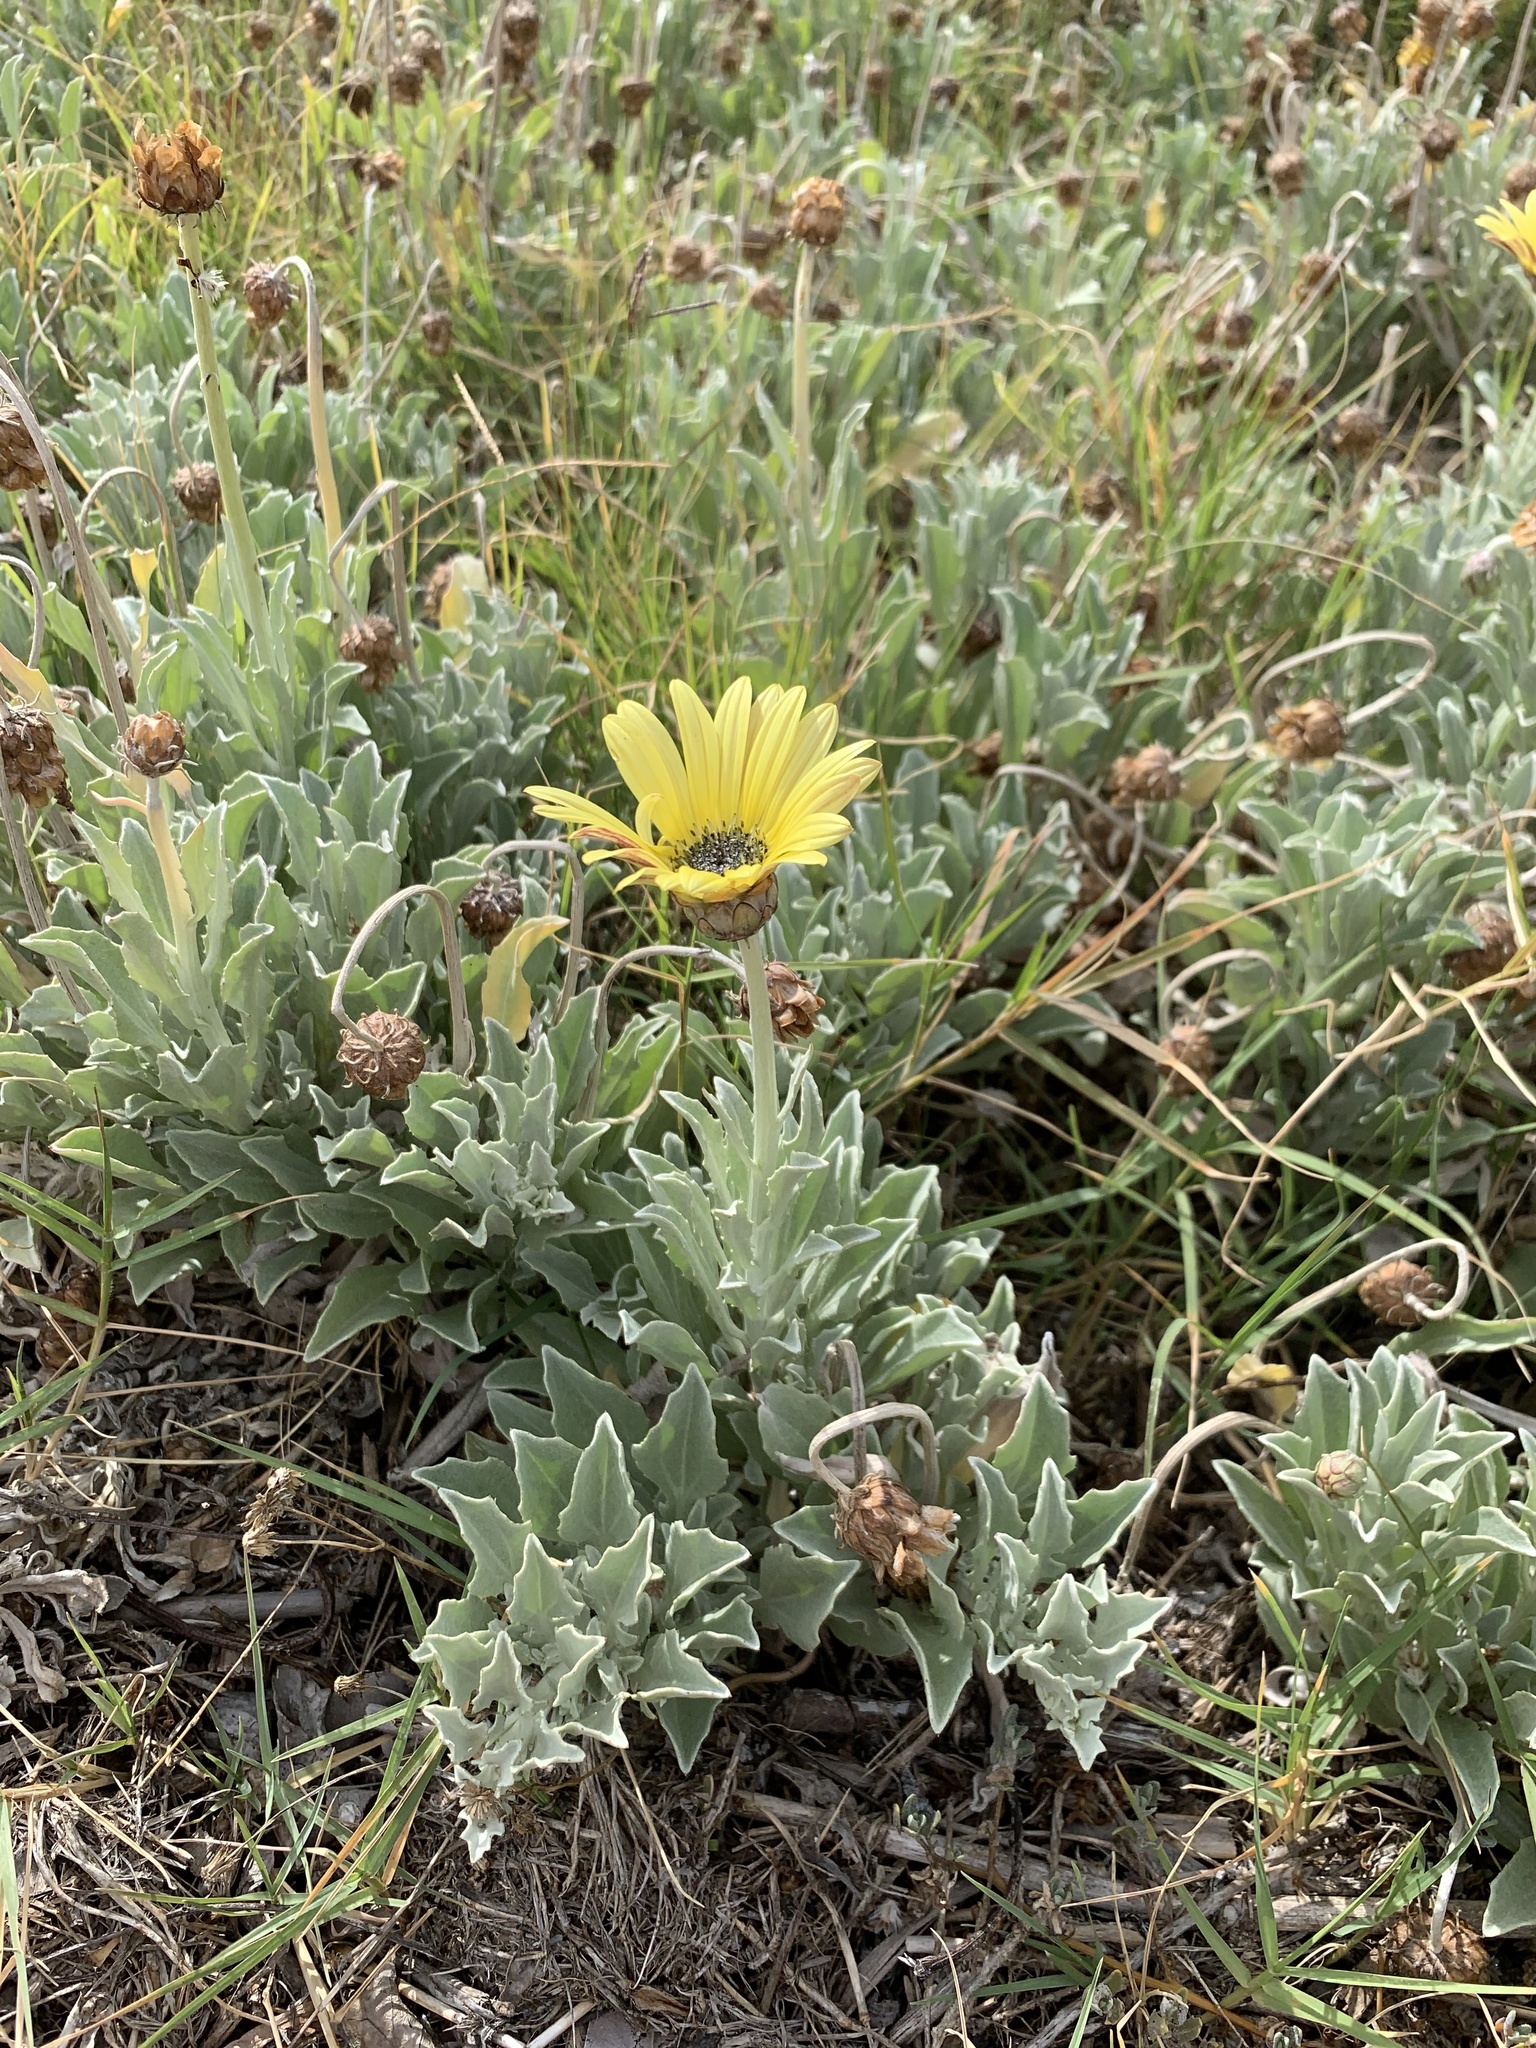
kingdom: Plantae
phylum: Tracheophyta
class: Magnoliopsida
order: Asterales
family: Asteraceae
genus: Arctotis
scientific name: Arctotis stoechadifolia
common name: African daisy
